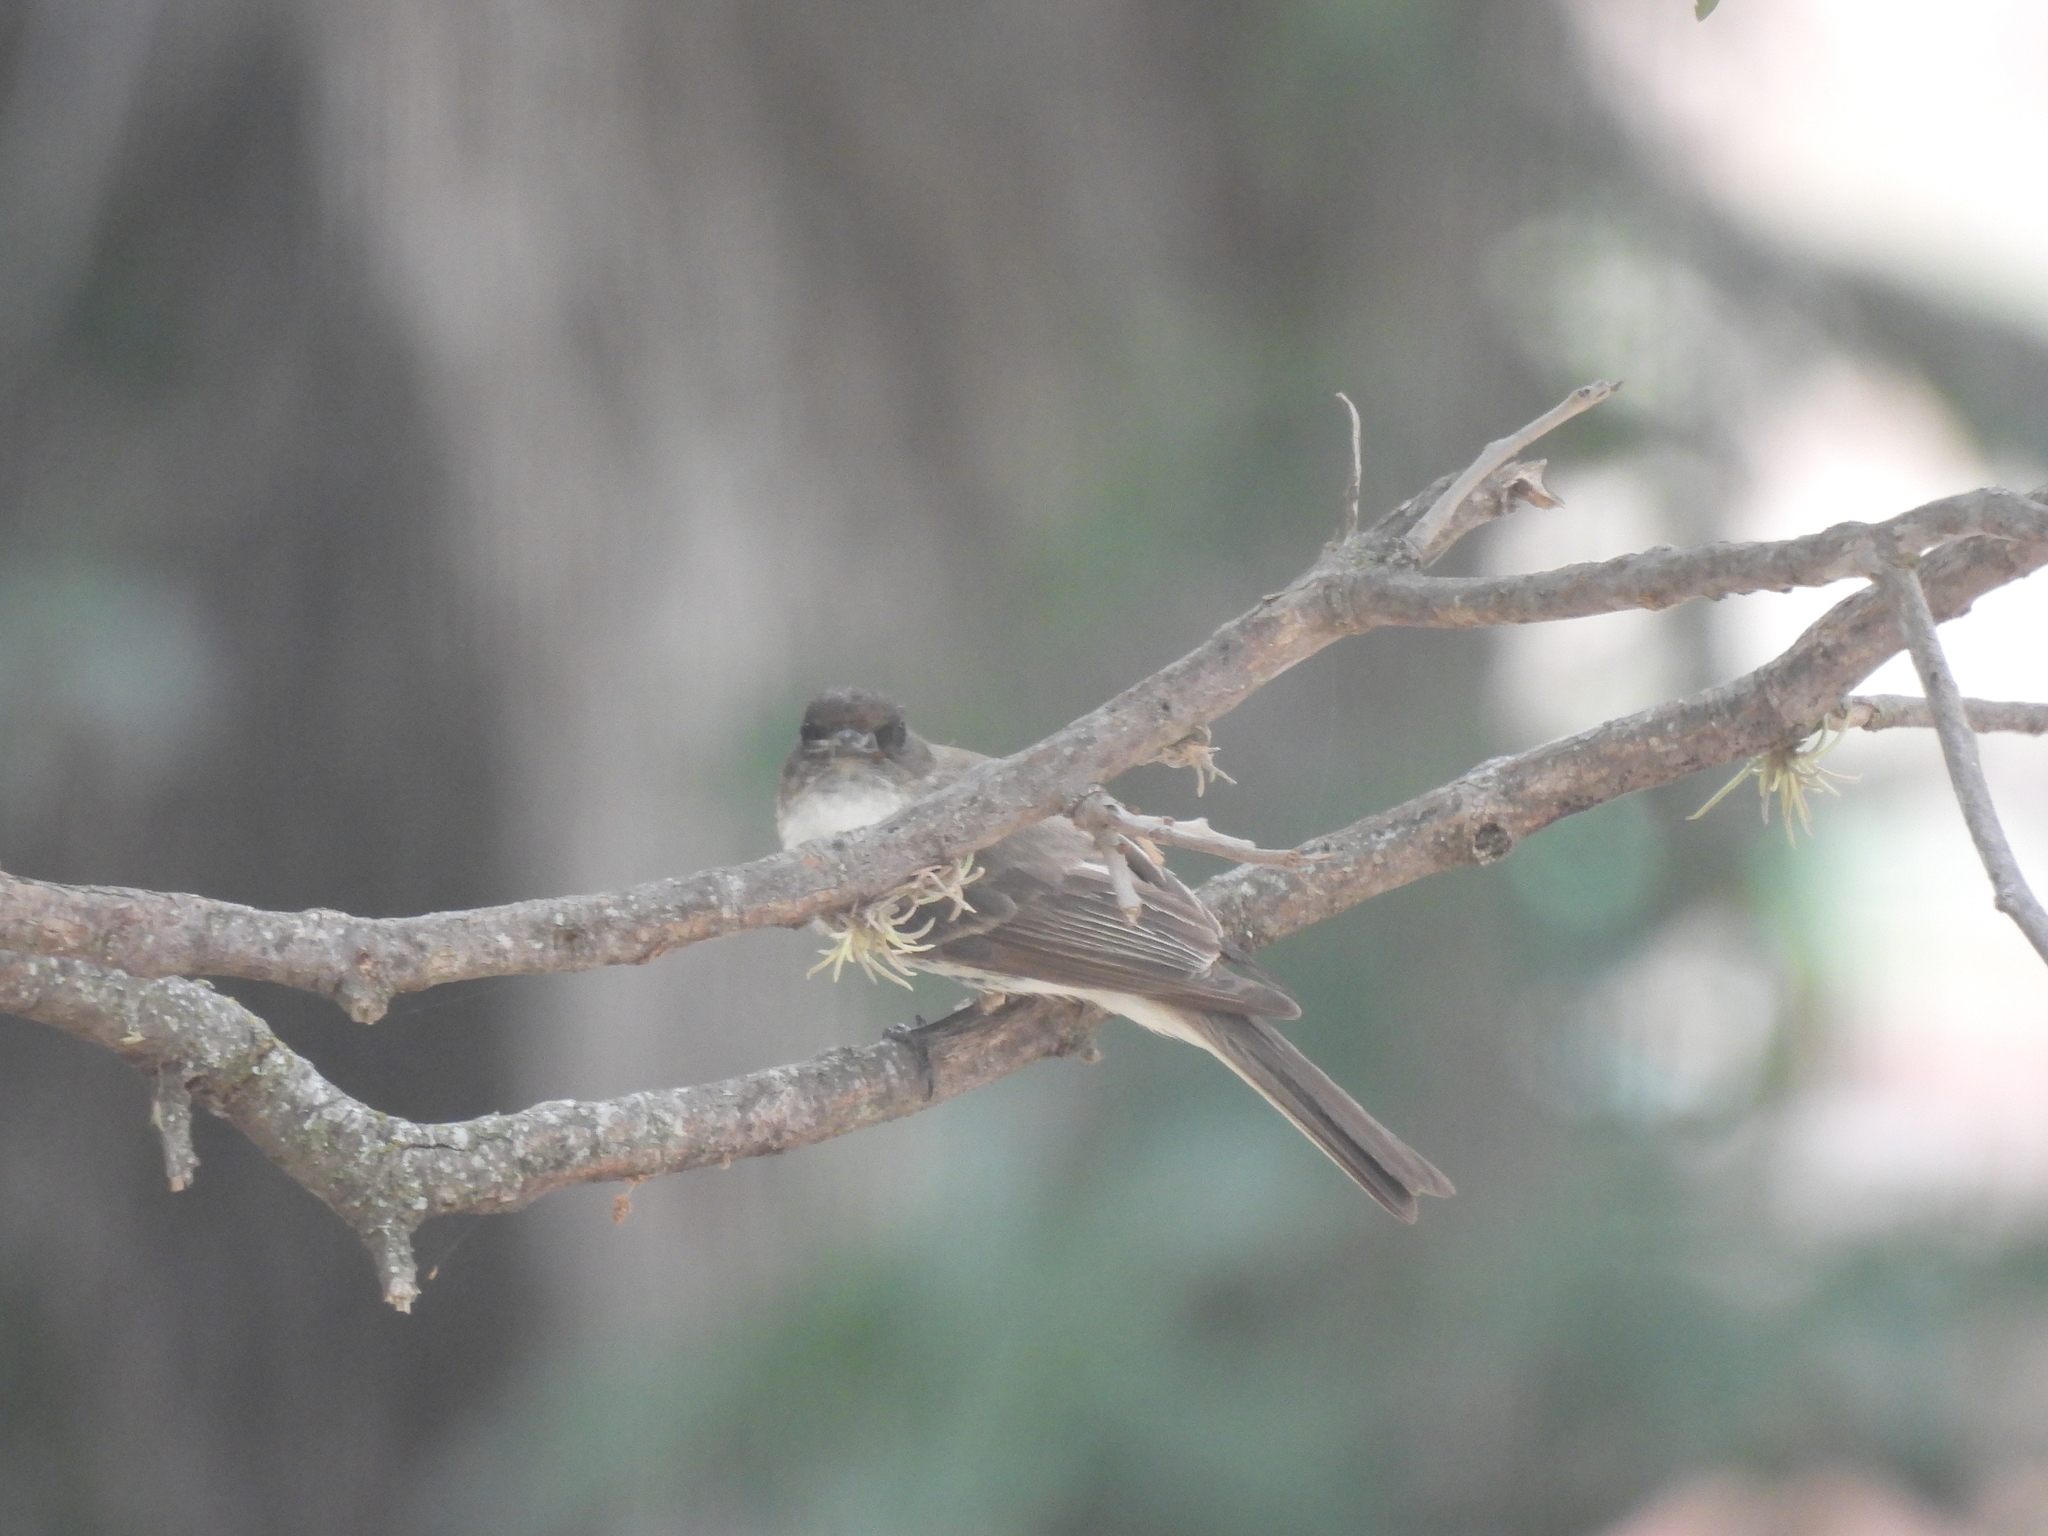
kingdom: Animalia
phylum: Chordata
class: Aves
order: Passeriformes
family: Tyrannidae
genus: Sayornis
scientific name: Sayornis phoebe
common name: Eastern phoebe
